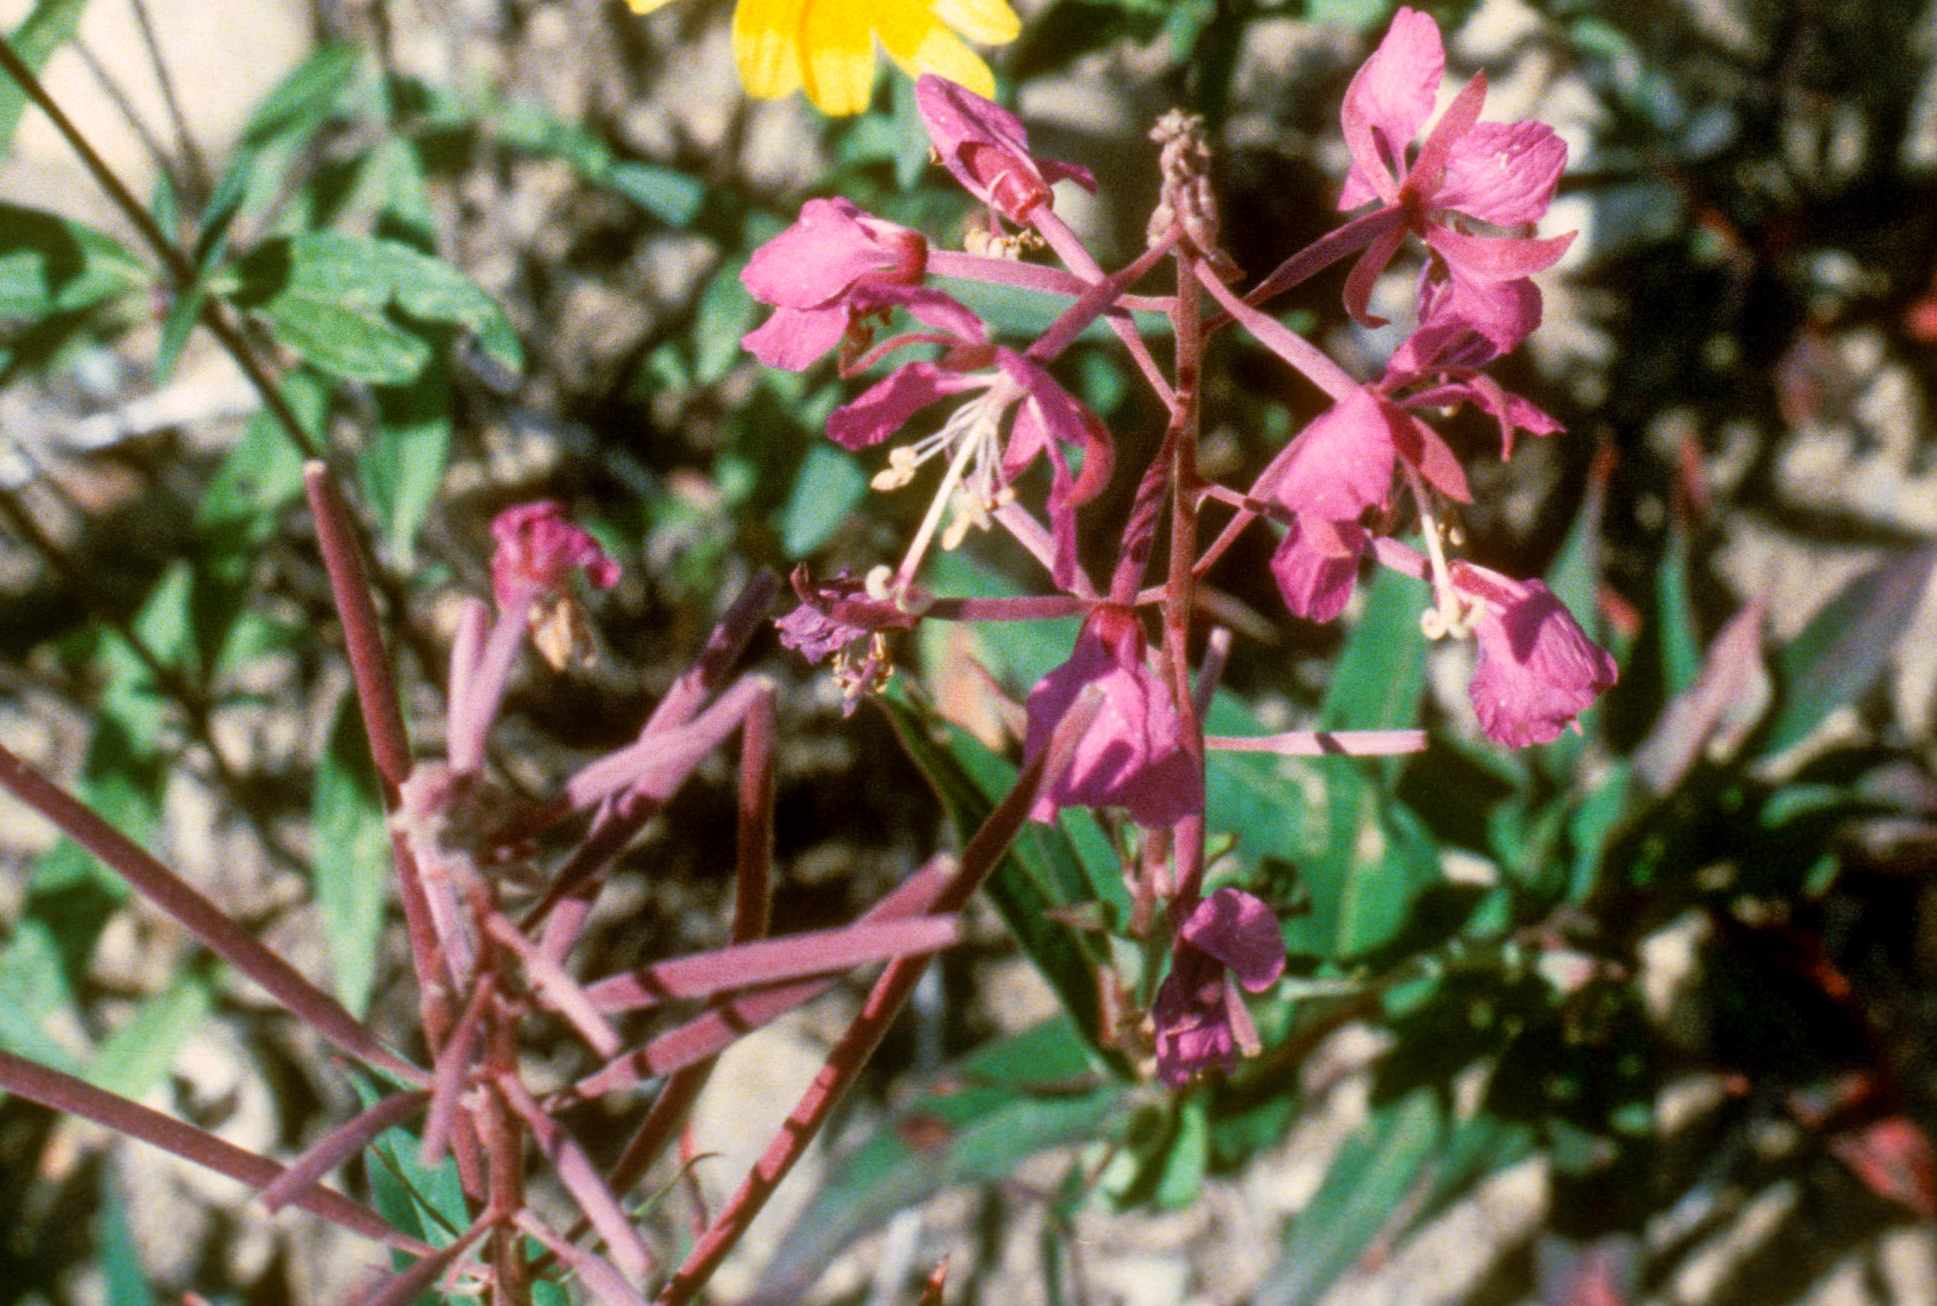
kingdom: Plantae
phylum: Tracheophyta
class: Magnoliopsida
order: Myrtales
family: Onagraceae
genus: Chamaenerion
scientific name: Chamaenerion angustifolium
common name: Fireweed
